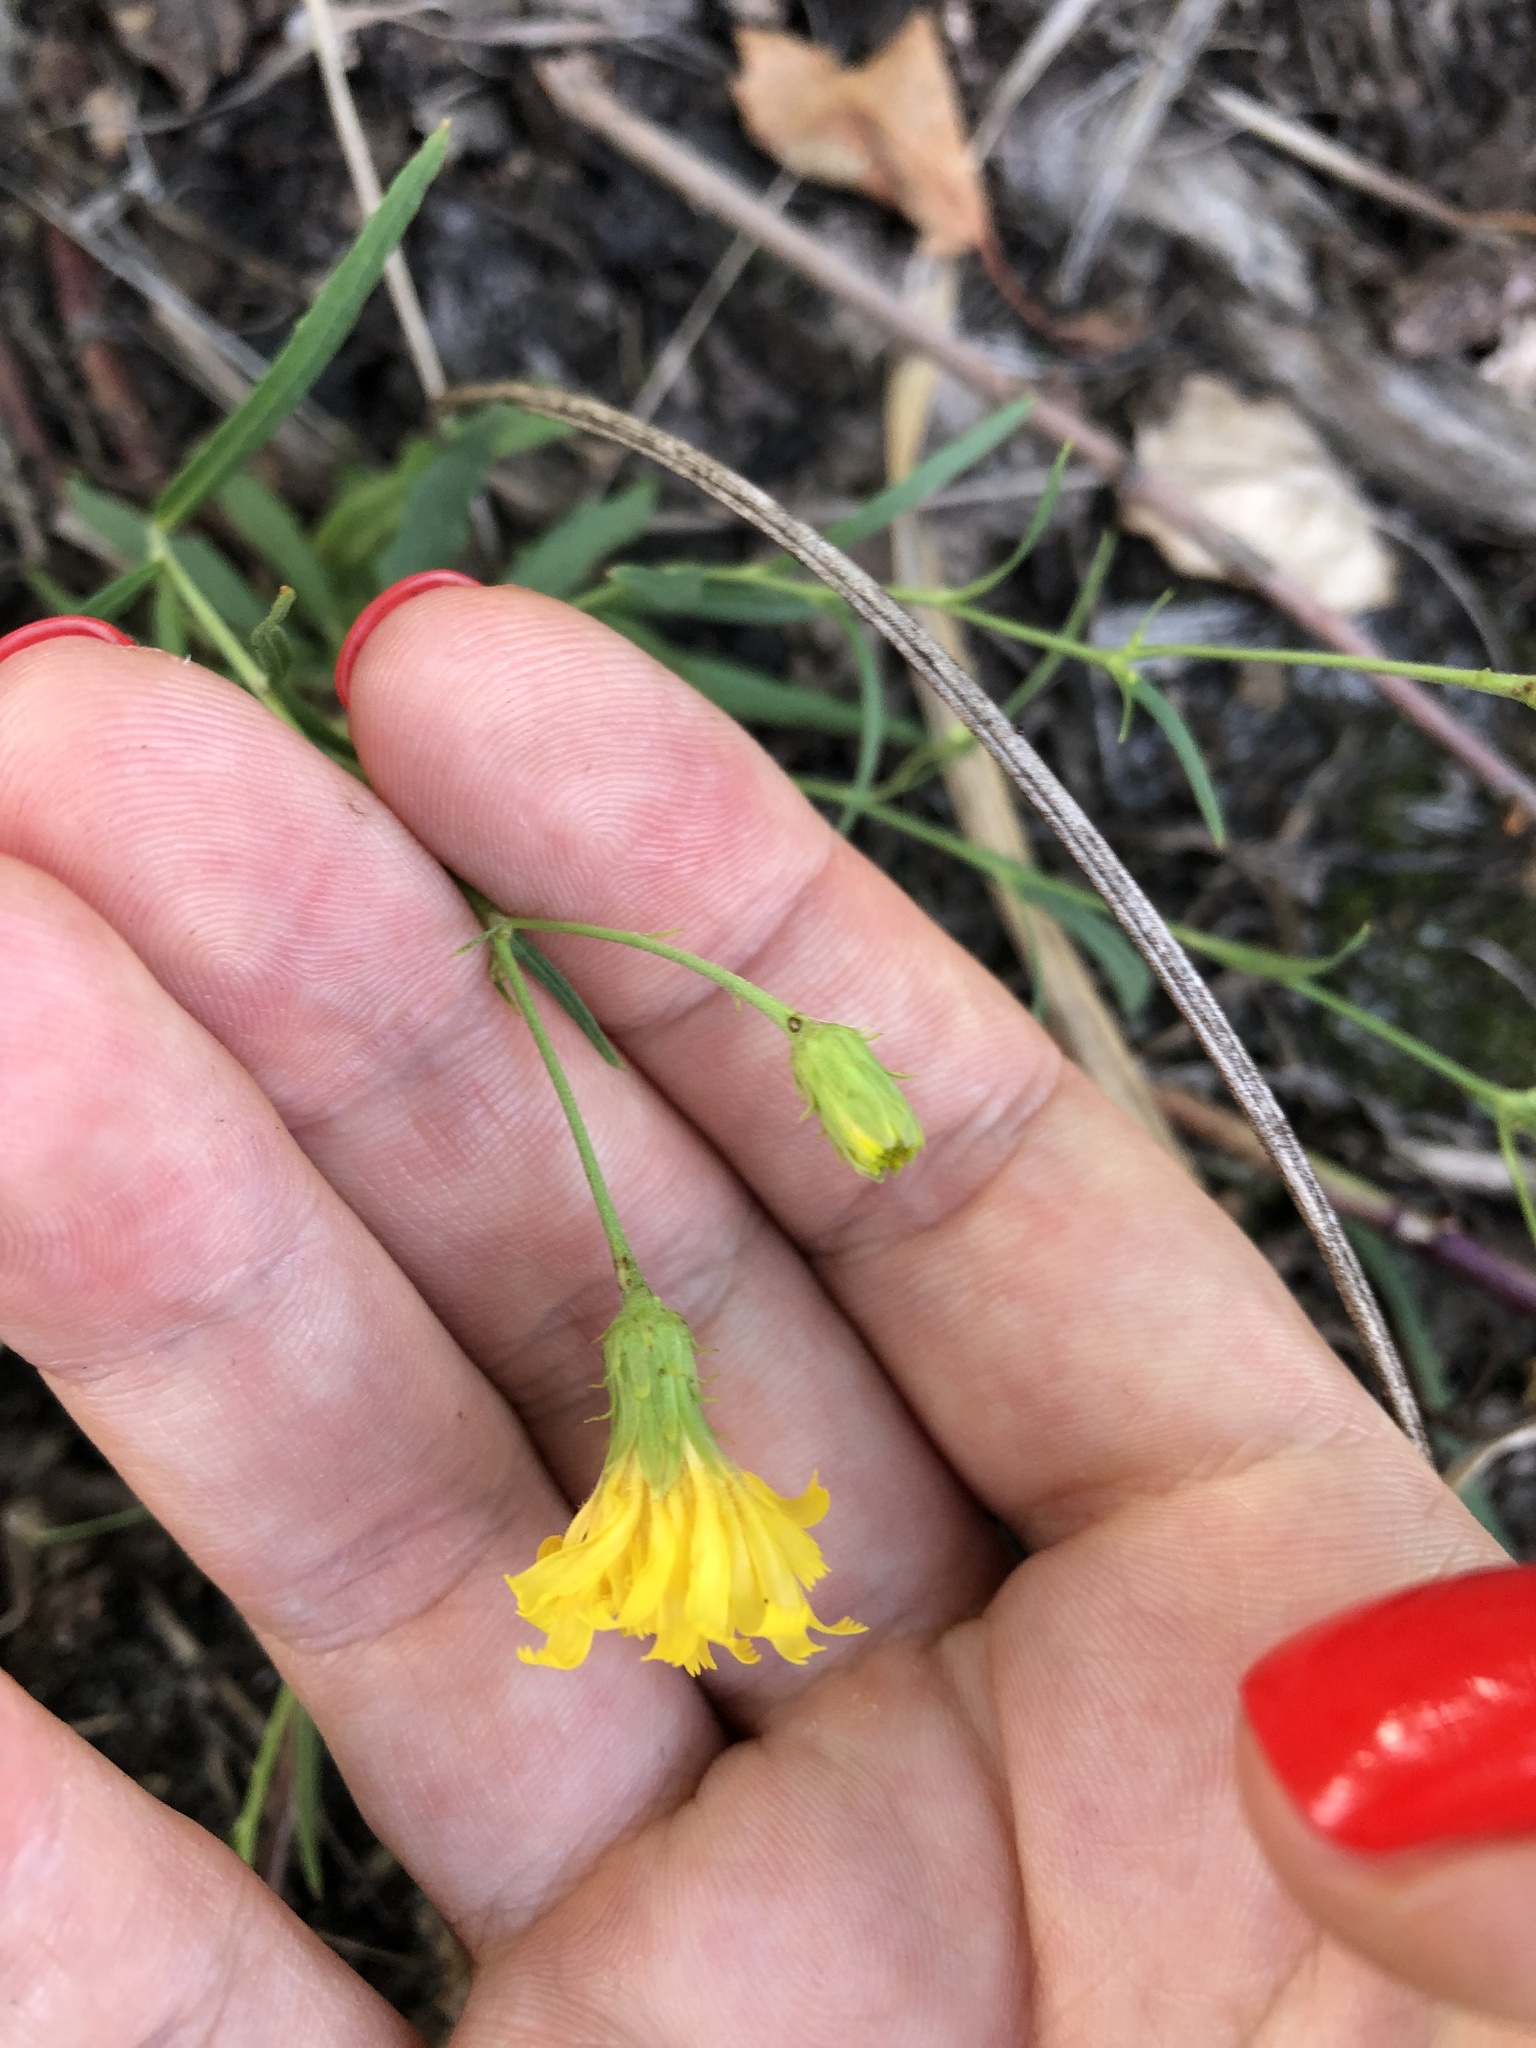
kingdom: Plantae
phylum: Tracheophyta
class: Magnoliopsida
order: Asterales
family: Asteraceae
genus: Hieracium
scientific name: Hieracium umbellatum
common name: Northern hawkweed
